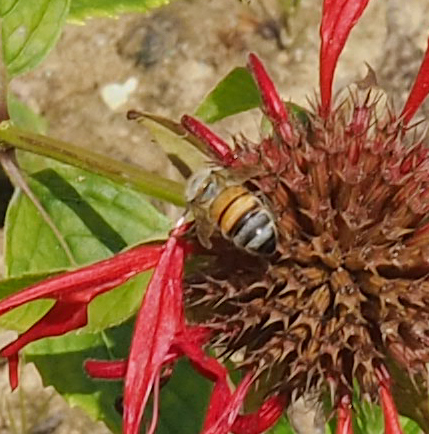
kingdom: Animalia
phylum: Arthropoda
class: Insecta
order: Hymenoptera
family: Apidae
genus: Apis
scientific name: Apis mellifera
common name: Honey bee
